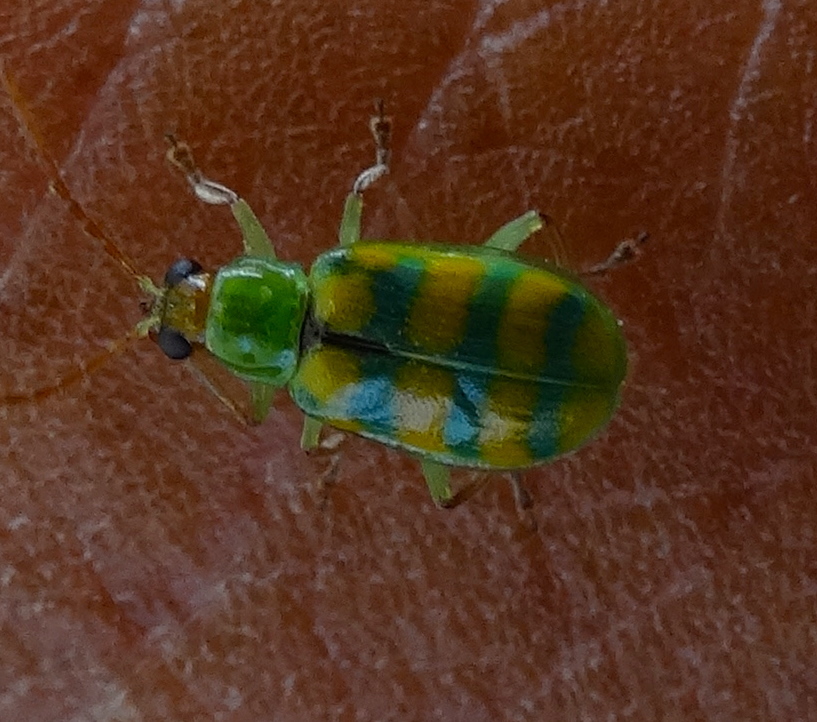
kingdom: Animalia
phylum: Arthropoda
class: Insecta
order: Coleoptera
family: Chrysomelidae
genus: Diabrotica
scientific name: Diabrotica balteata
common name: Leaf beetle
